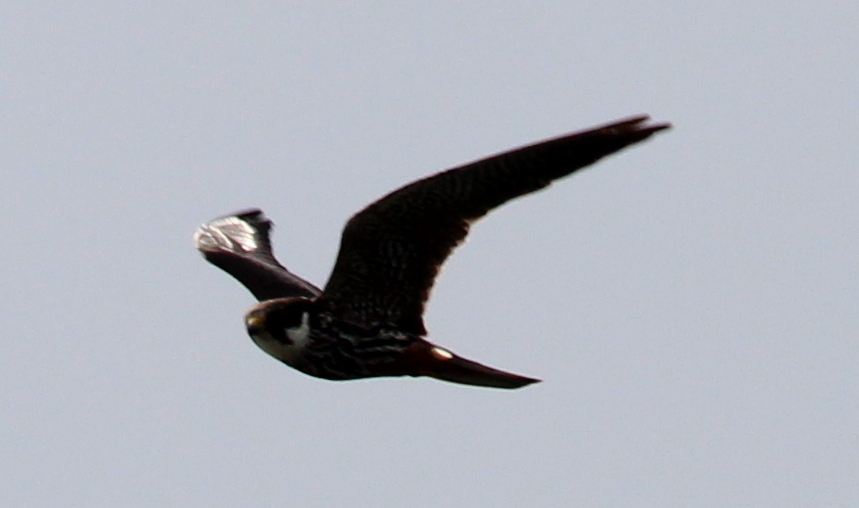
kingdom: Animalia
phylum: Chordata
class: Aves
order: Falconiformes
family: Falconidae
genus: Falco
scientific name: Falco subbuteo
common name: Eurasian hobby
